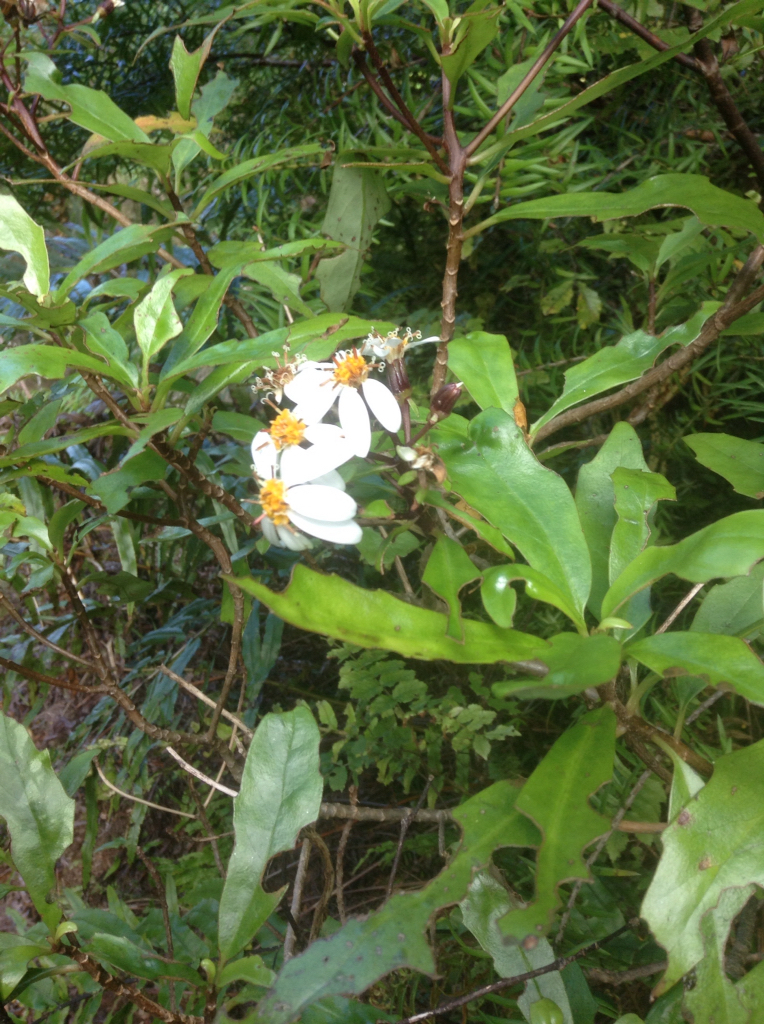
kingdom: Plantae
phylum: Tracheophyta
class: Magnoliopsida
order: Asterales
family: Asteraceae
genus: Brachyglottis
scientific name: Brachyglottis kirkii
